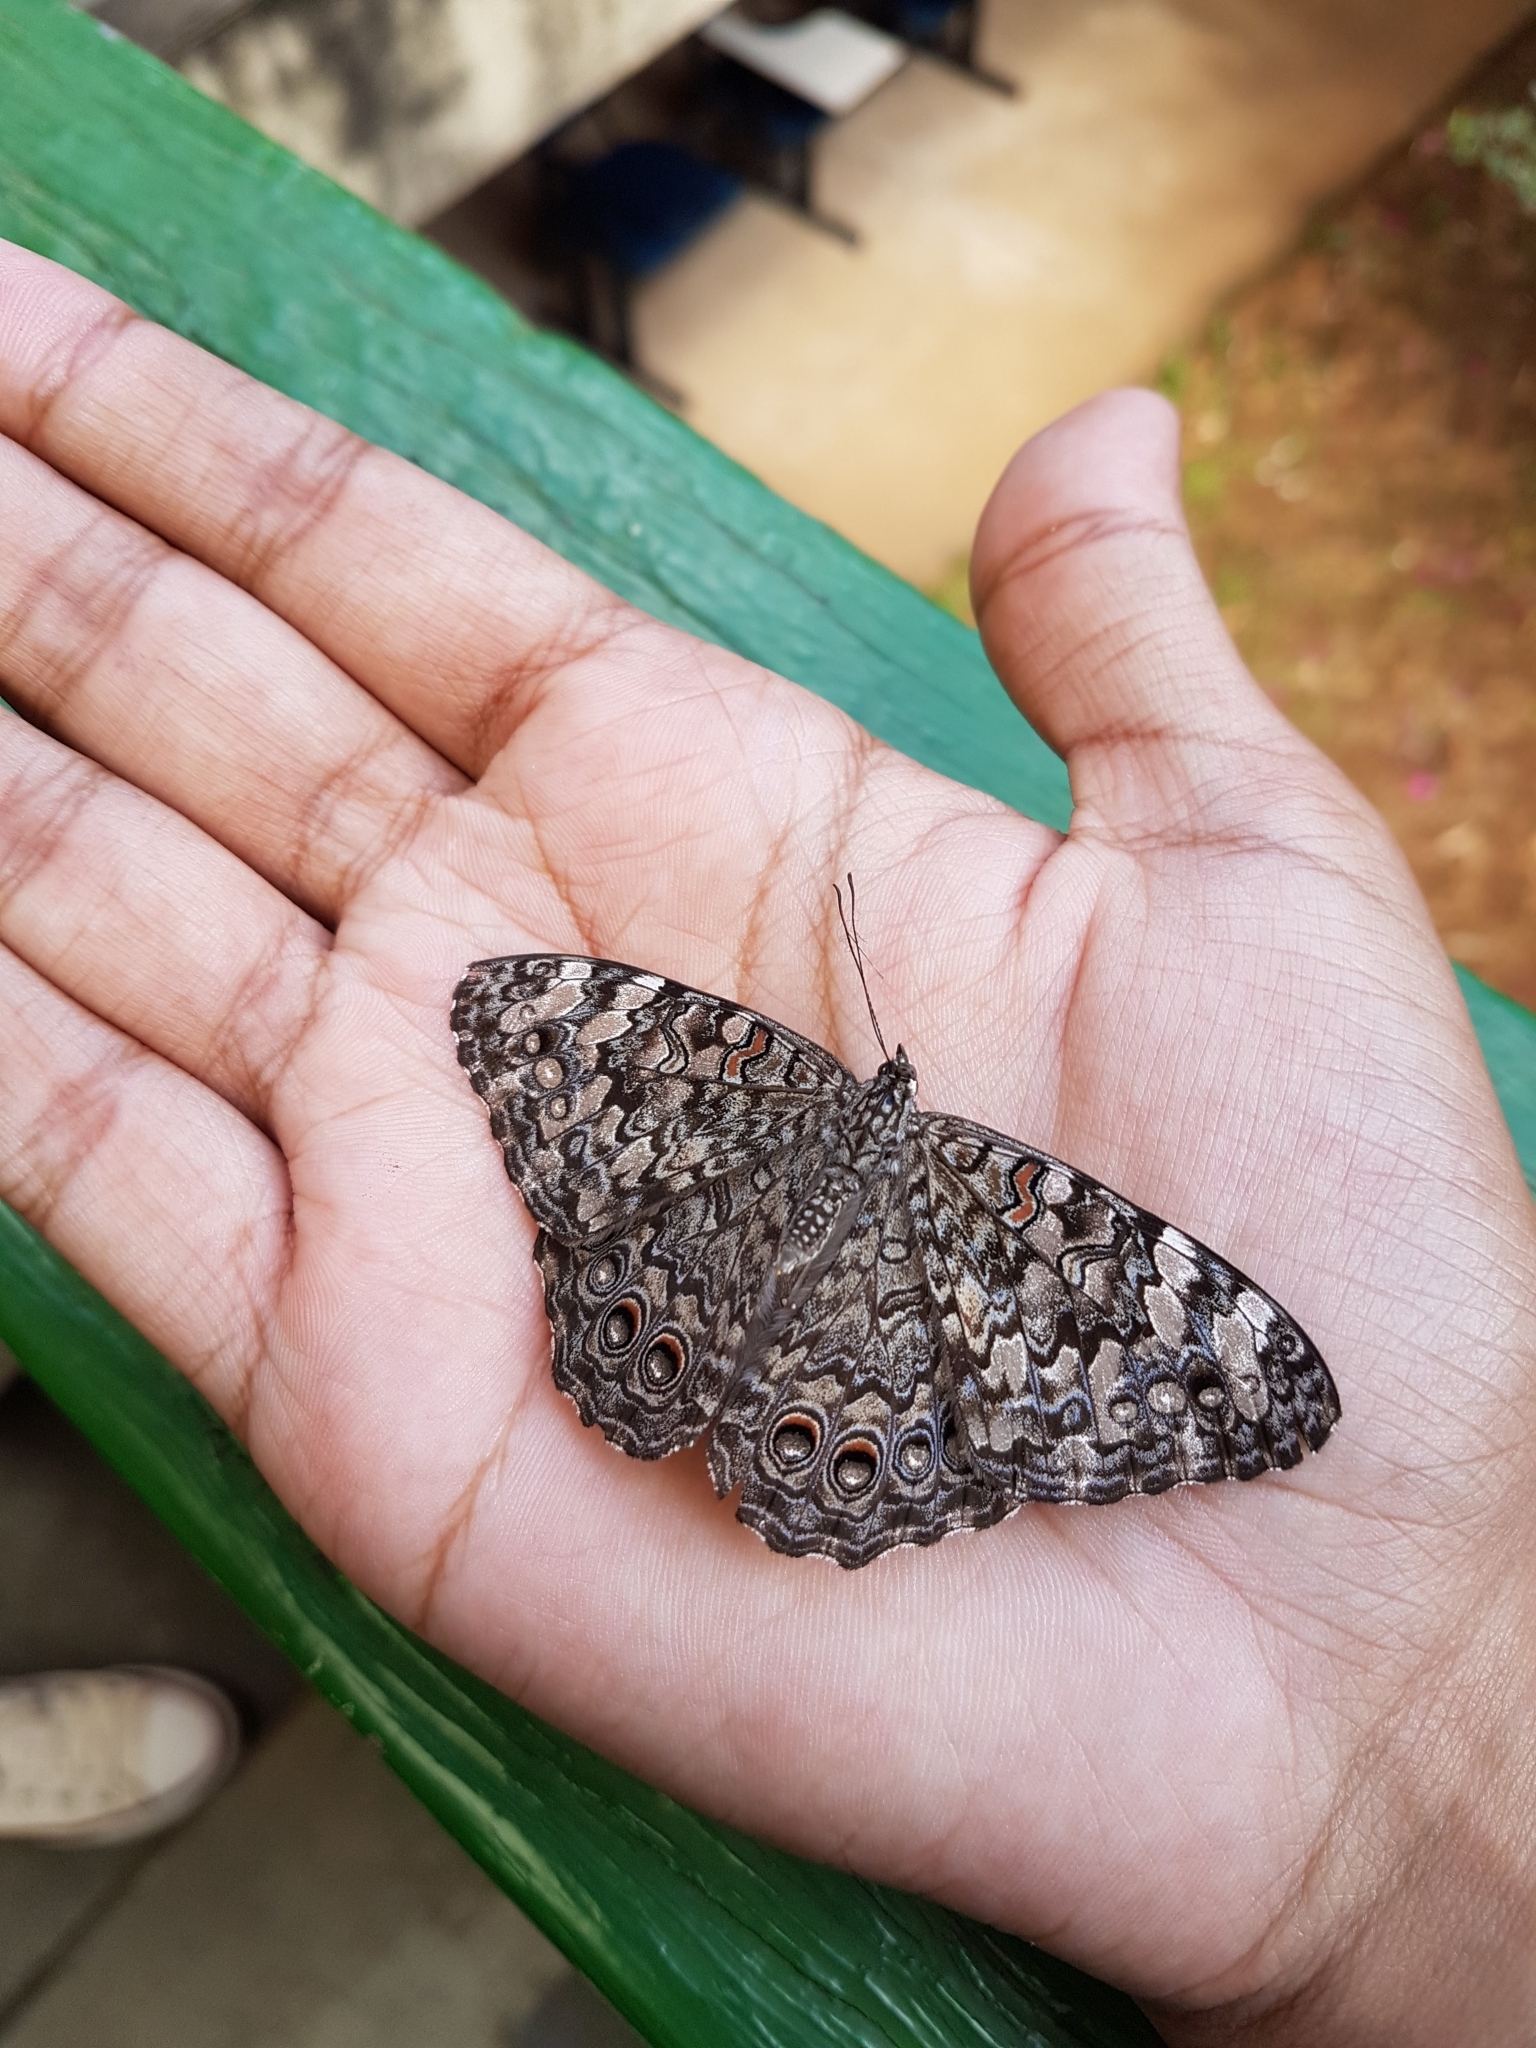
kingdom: Animalia
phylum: Arthropoda
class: Insecta
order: Lepidoptera
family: Nymphalidae
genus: Hamadryas
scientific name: Hamadryas februa
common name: Gray cracker
